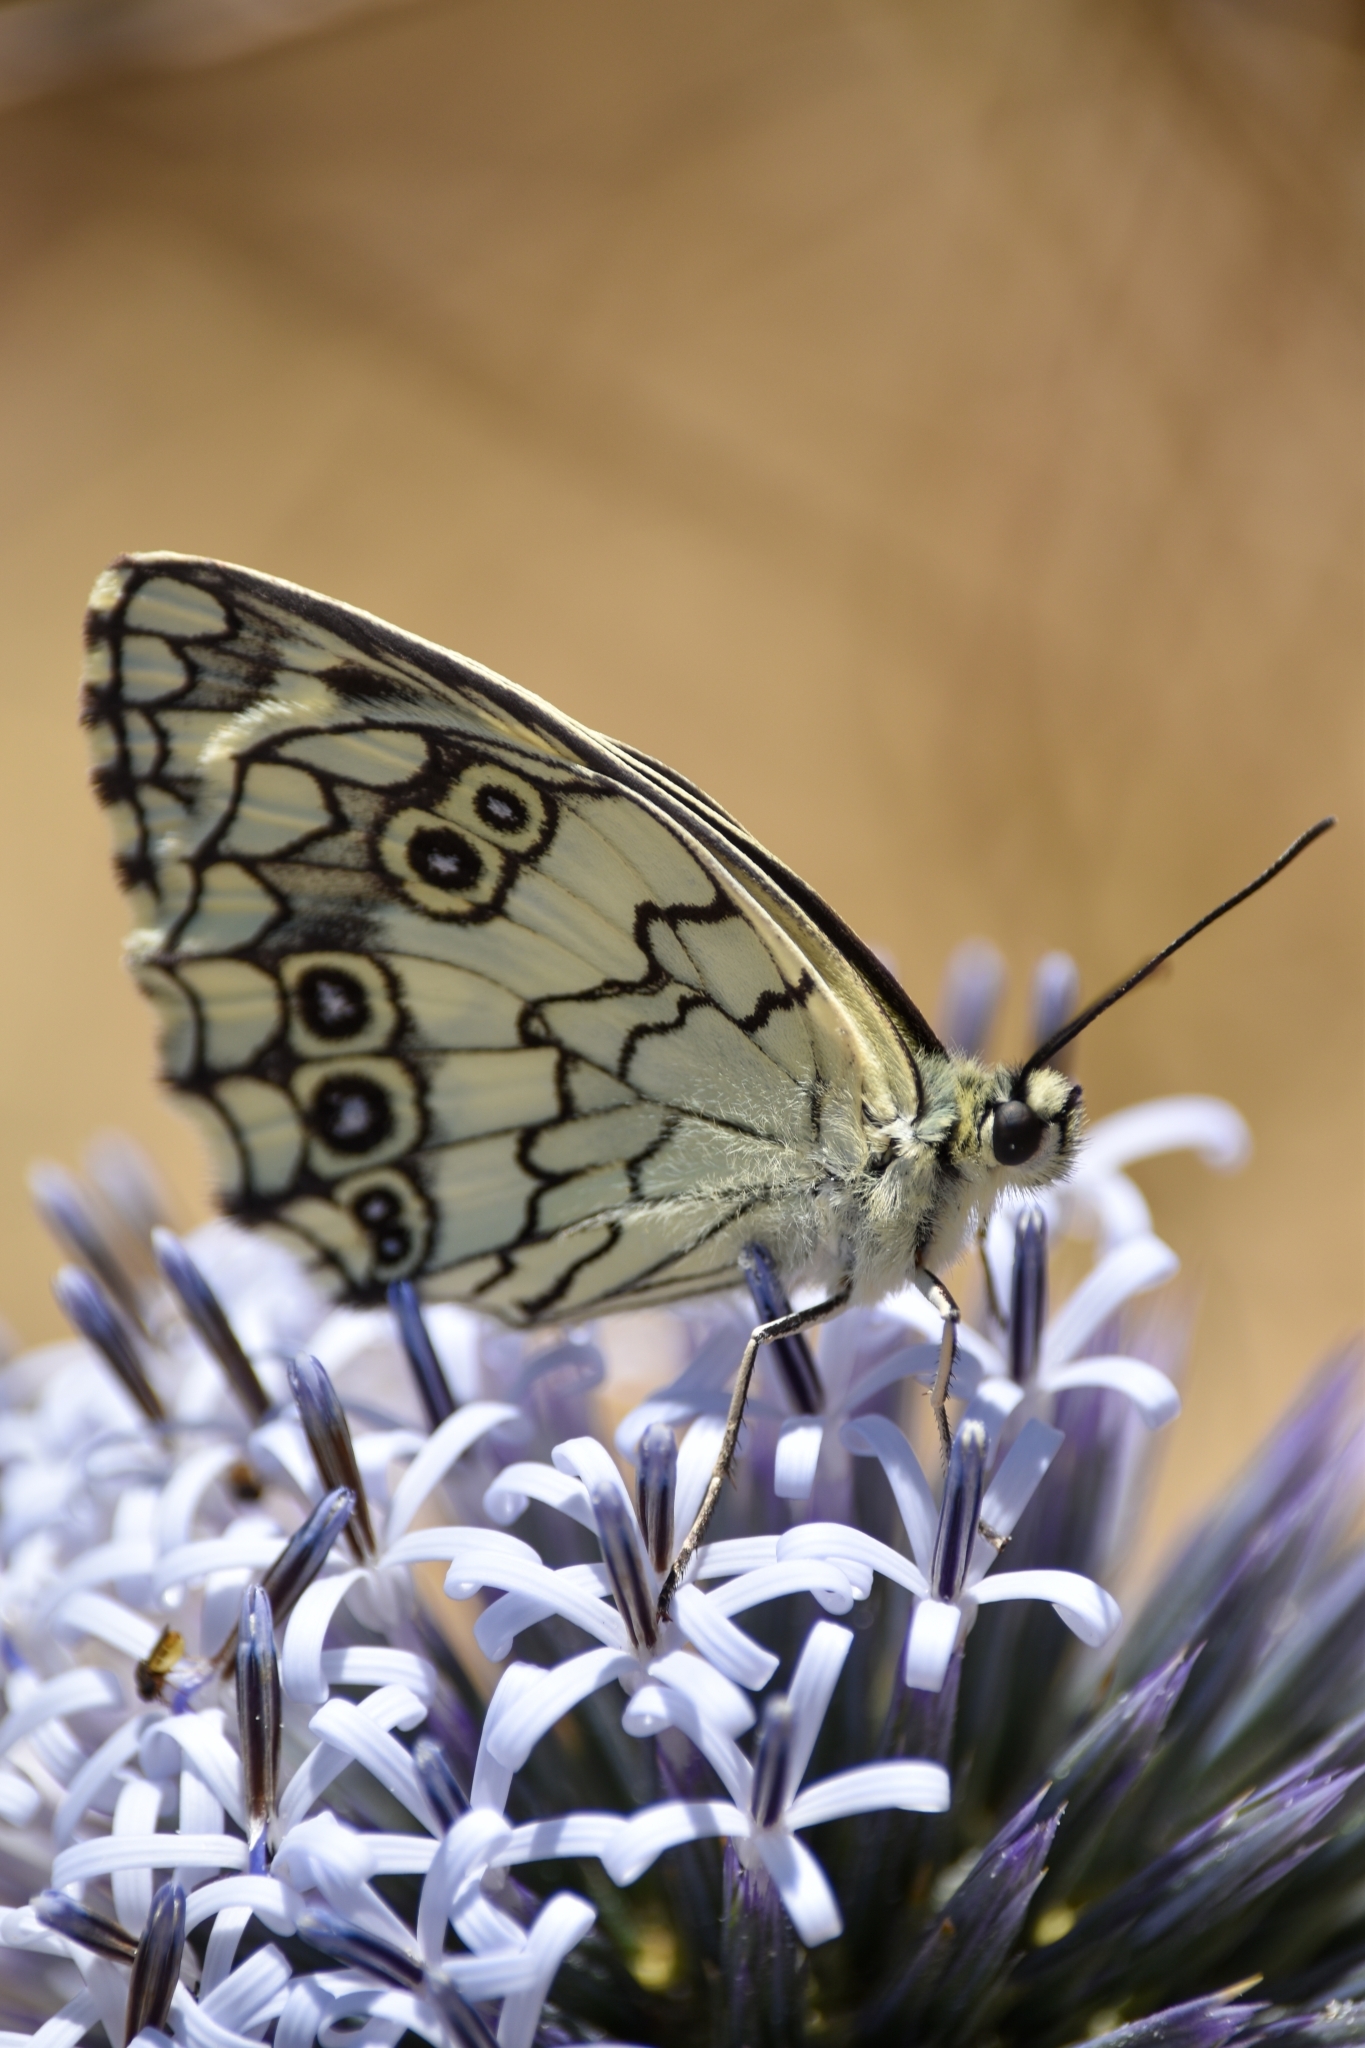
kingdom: Animalia
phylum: Arthropoda
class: Insecta
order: Lepidoptera
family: Nymphalidae
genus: Melanargia
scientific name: Melanargia larissa
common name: Balkan marbled white
